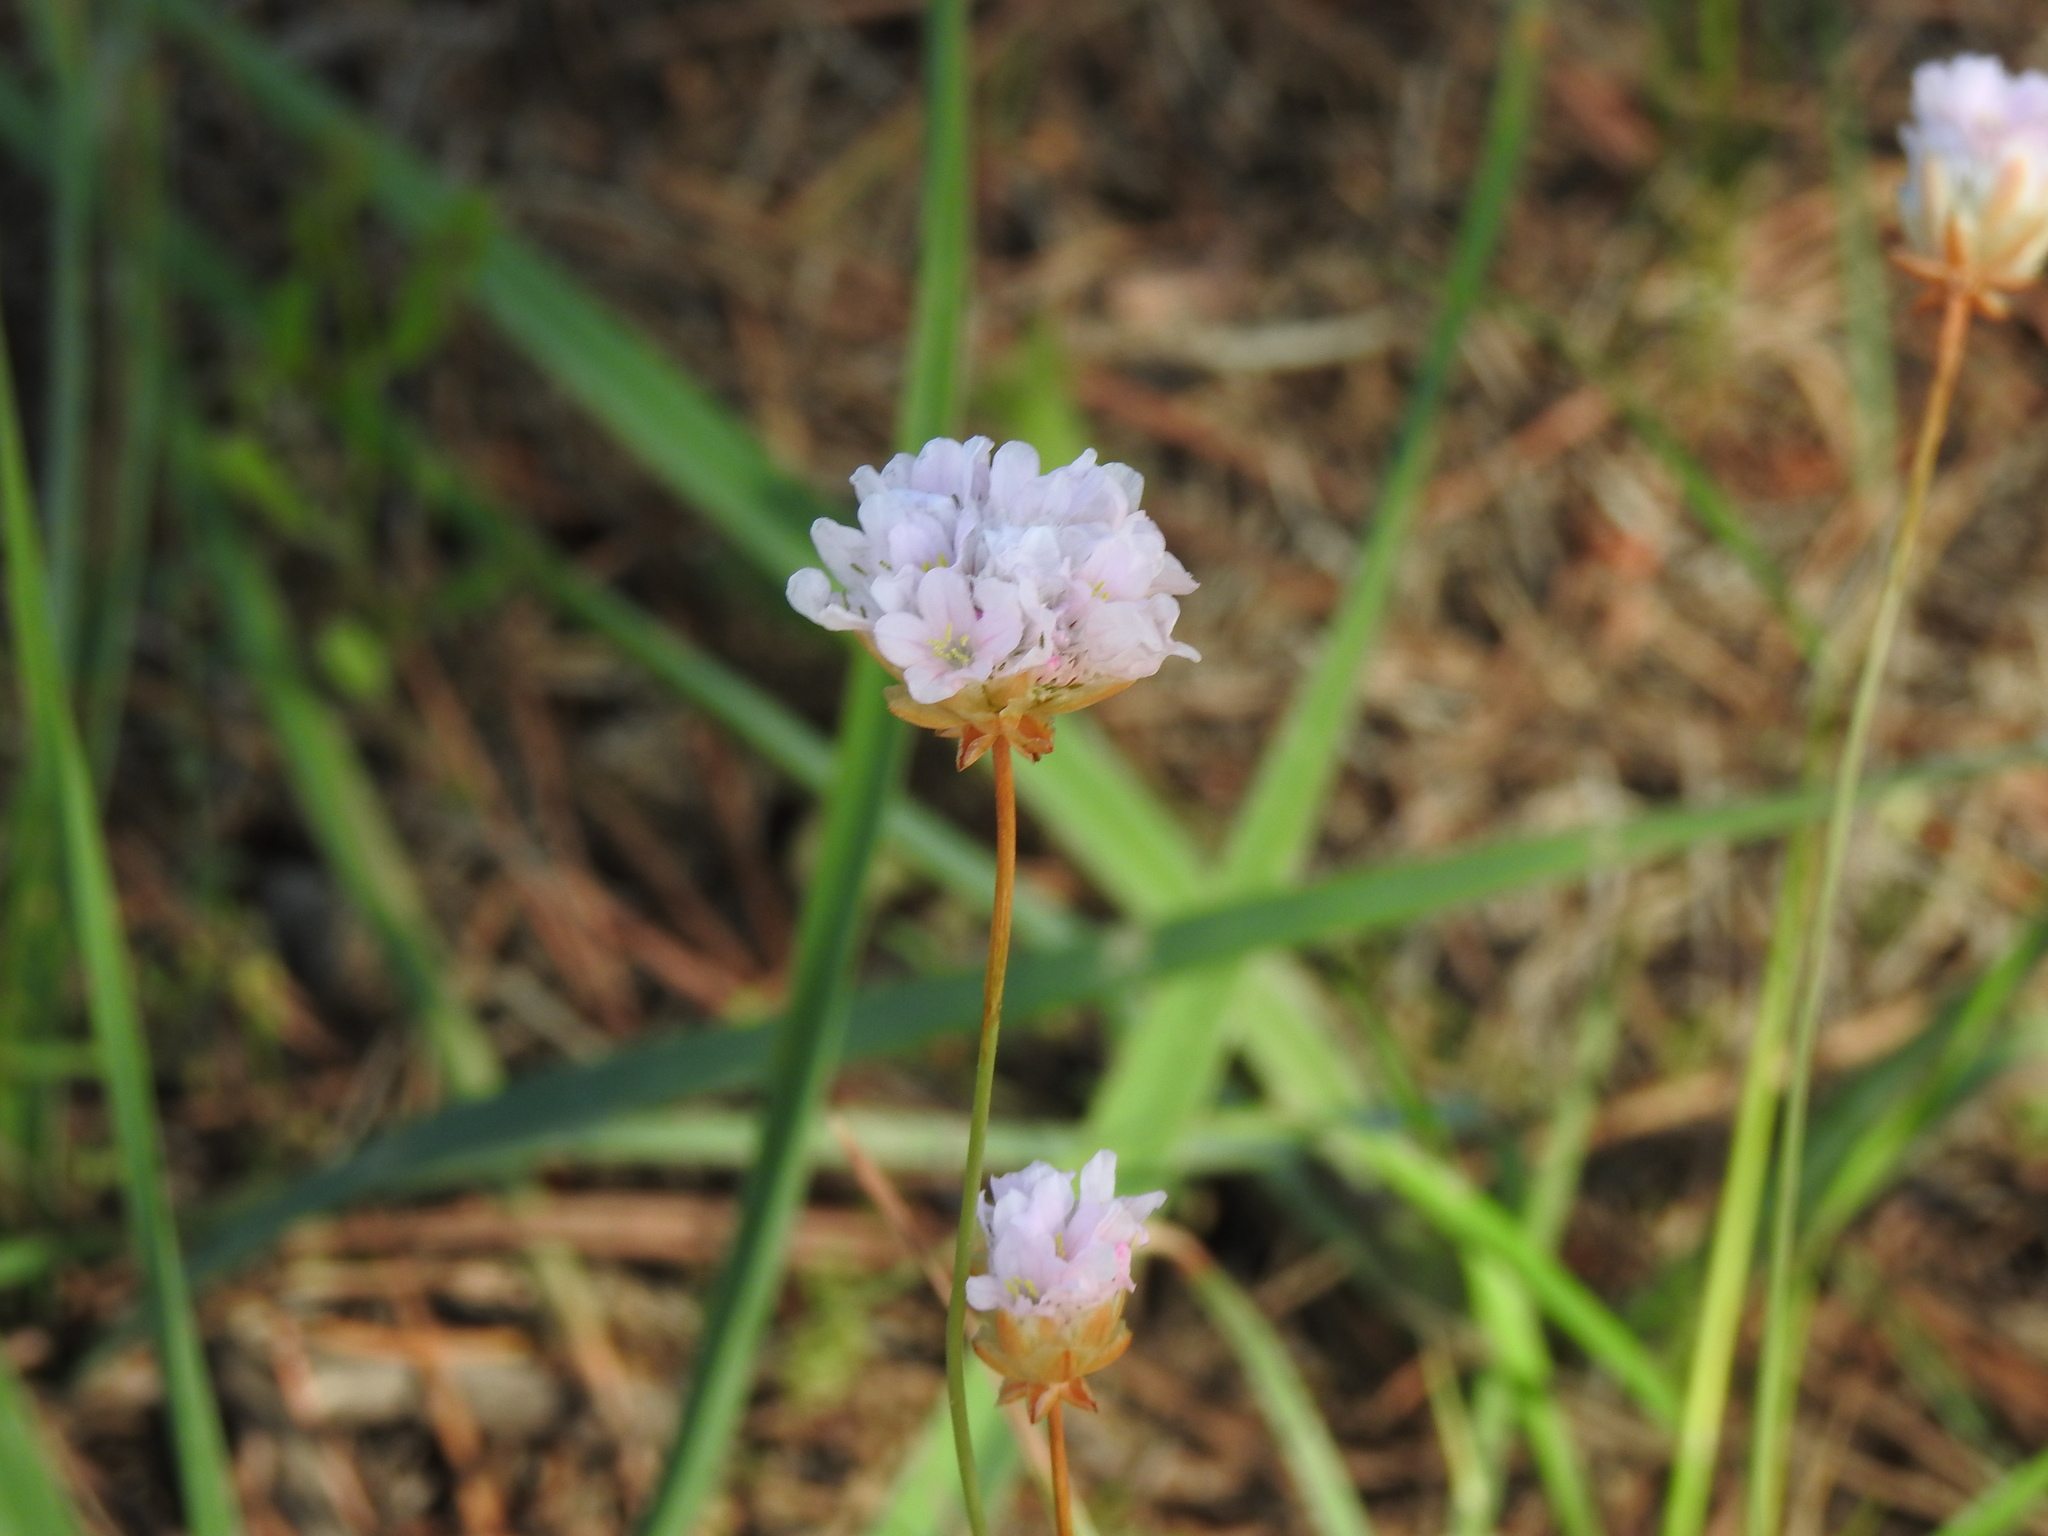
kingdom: Plantae
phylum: Tracheophyta
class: Magnoliopsida
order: Caryophyllales
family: Plumbaginaceae
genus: Armeria
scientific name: Armeria macrophylla
